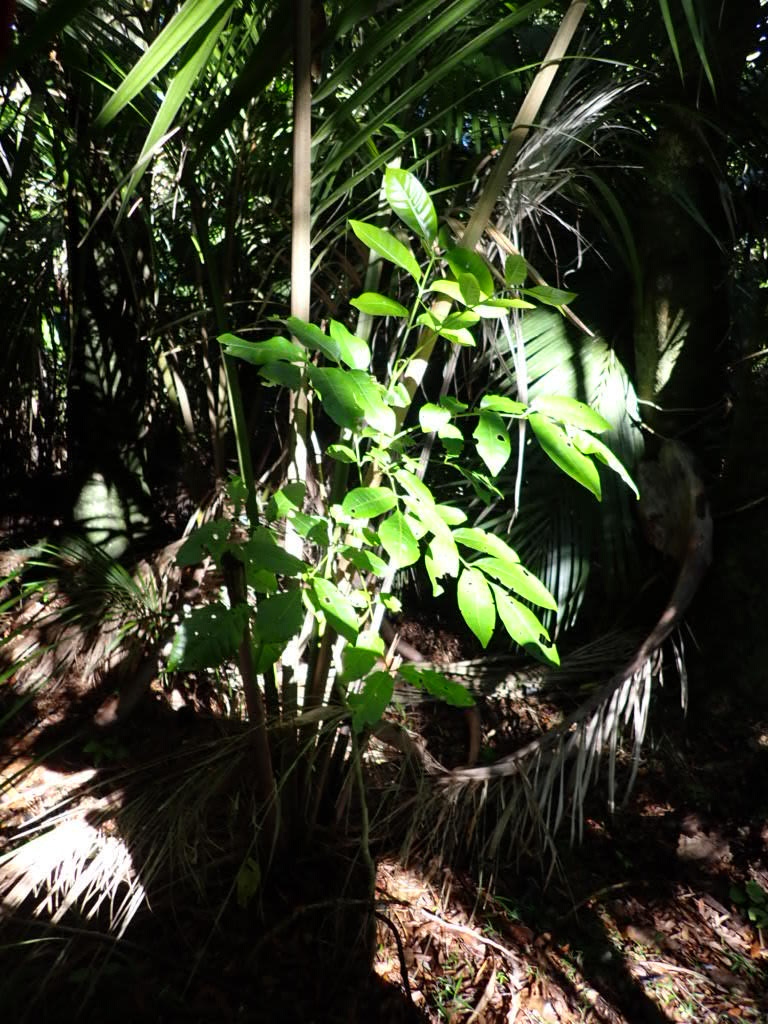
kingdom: Plantae
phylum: Tracheophyta
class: Magnoliopsida
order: Sapindales
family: Meliaceae
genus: Didymocheton
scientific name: Didymocheton spectabilis
